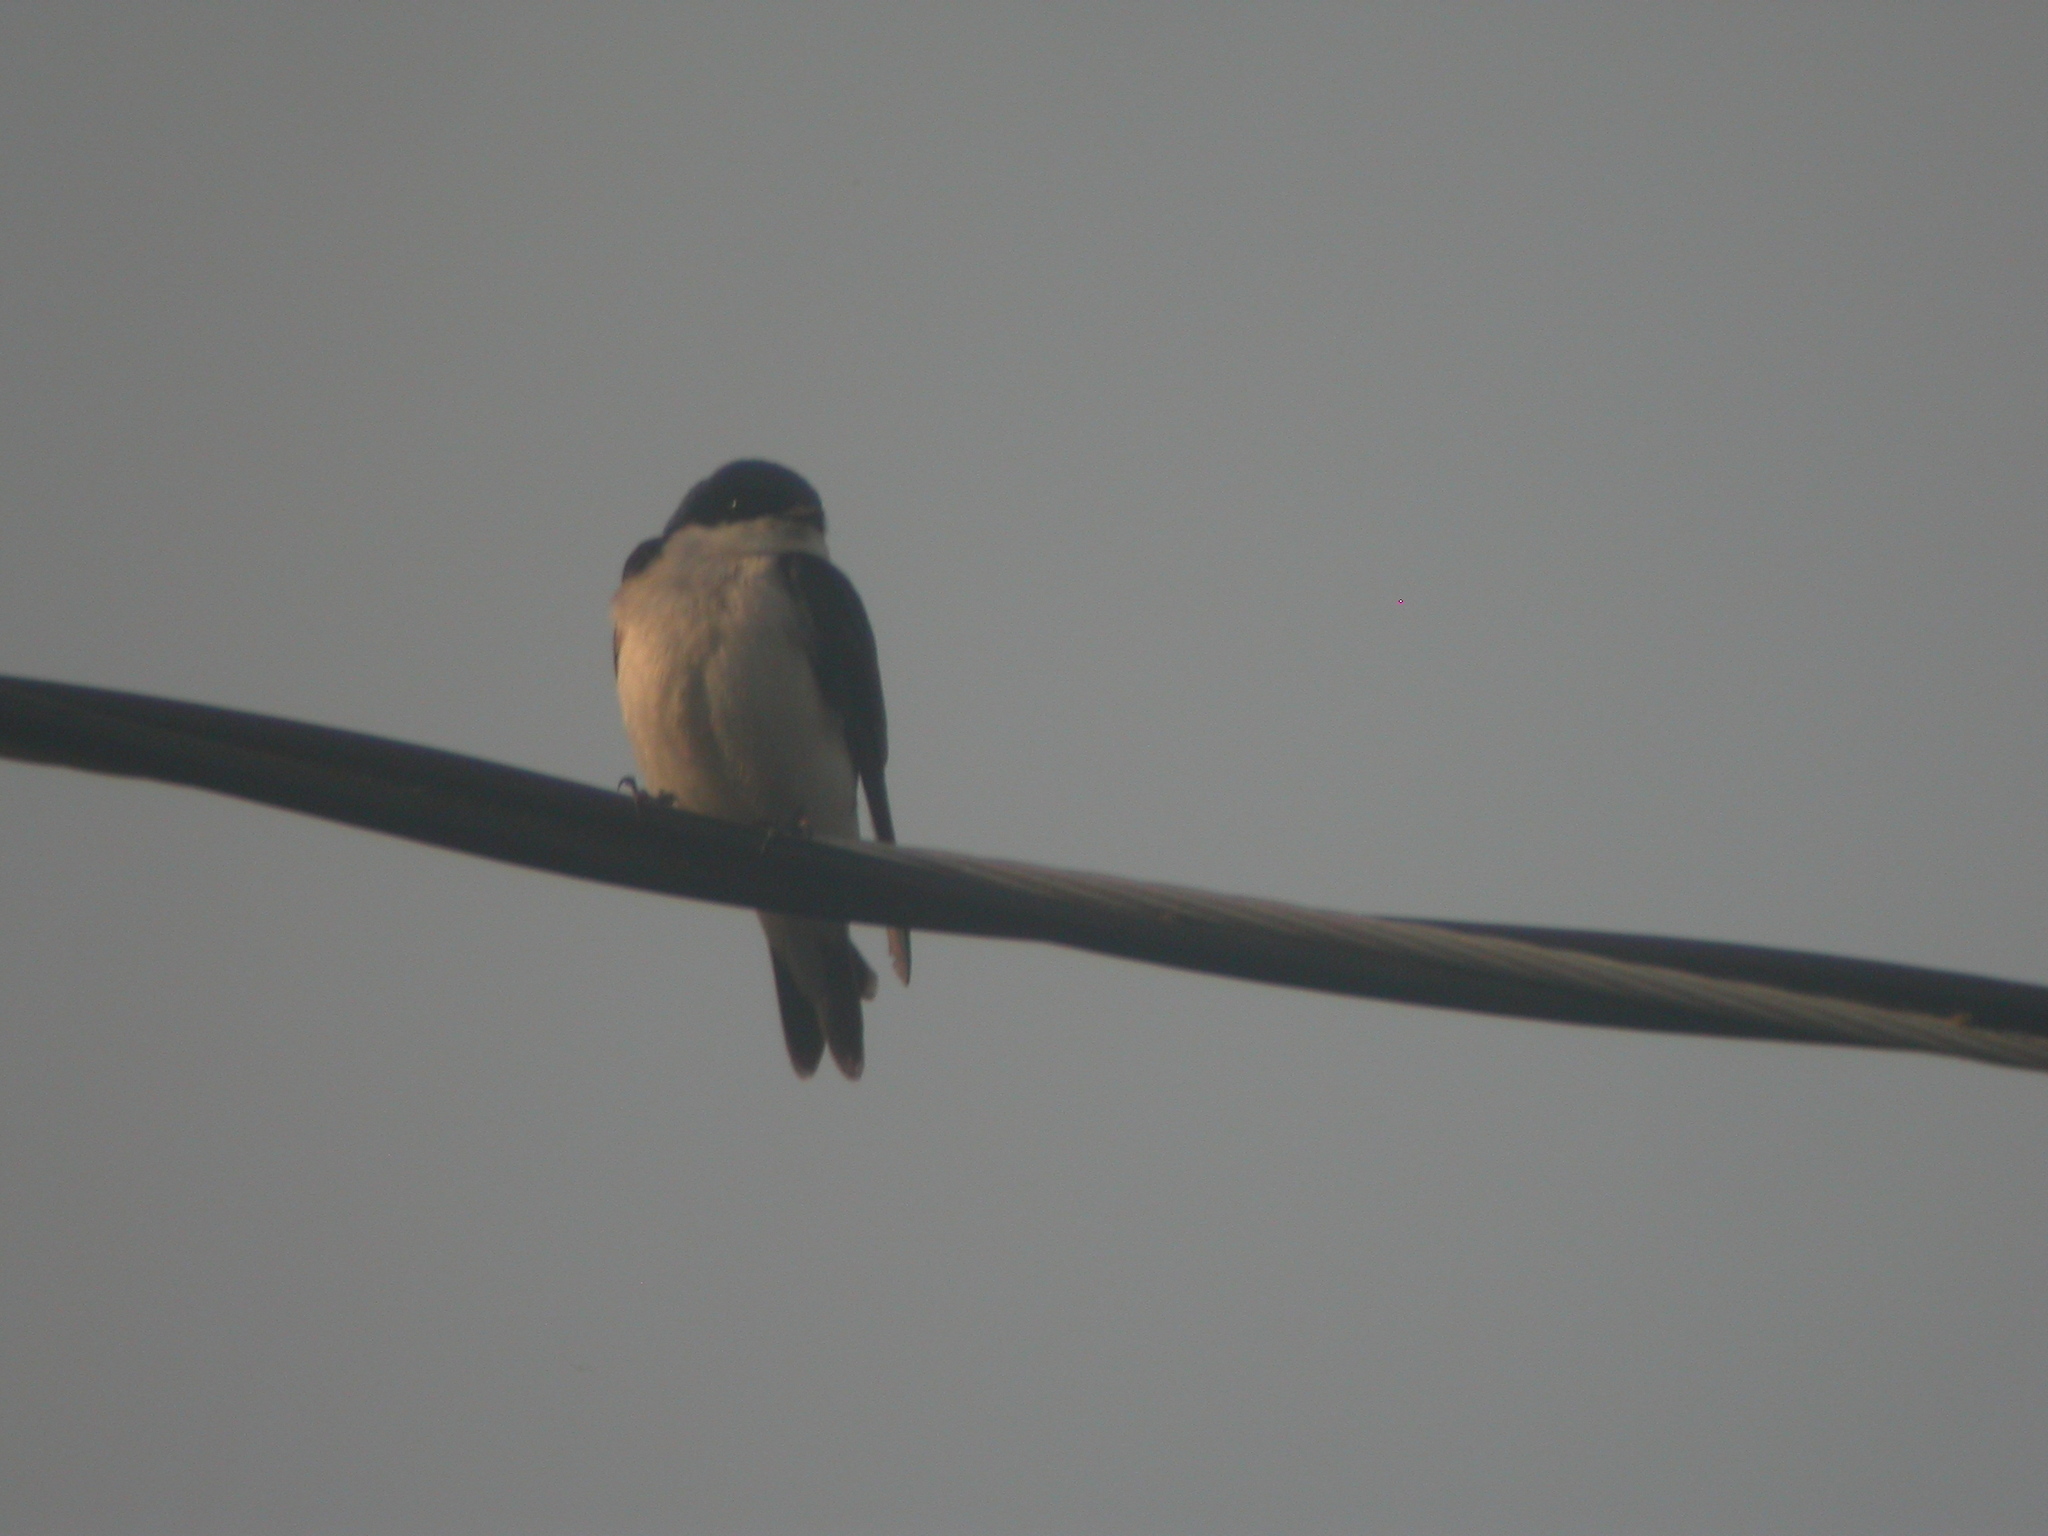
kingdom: Animalia
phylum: Chordata
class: Aves
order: Passeriformes
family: Hirundinidae
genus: Tachycineta
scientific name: Tachycineta bicolor
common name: Tree swallow
